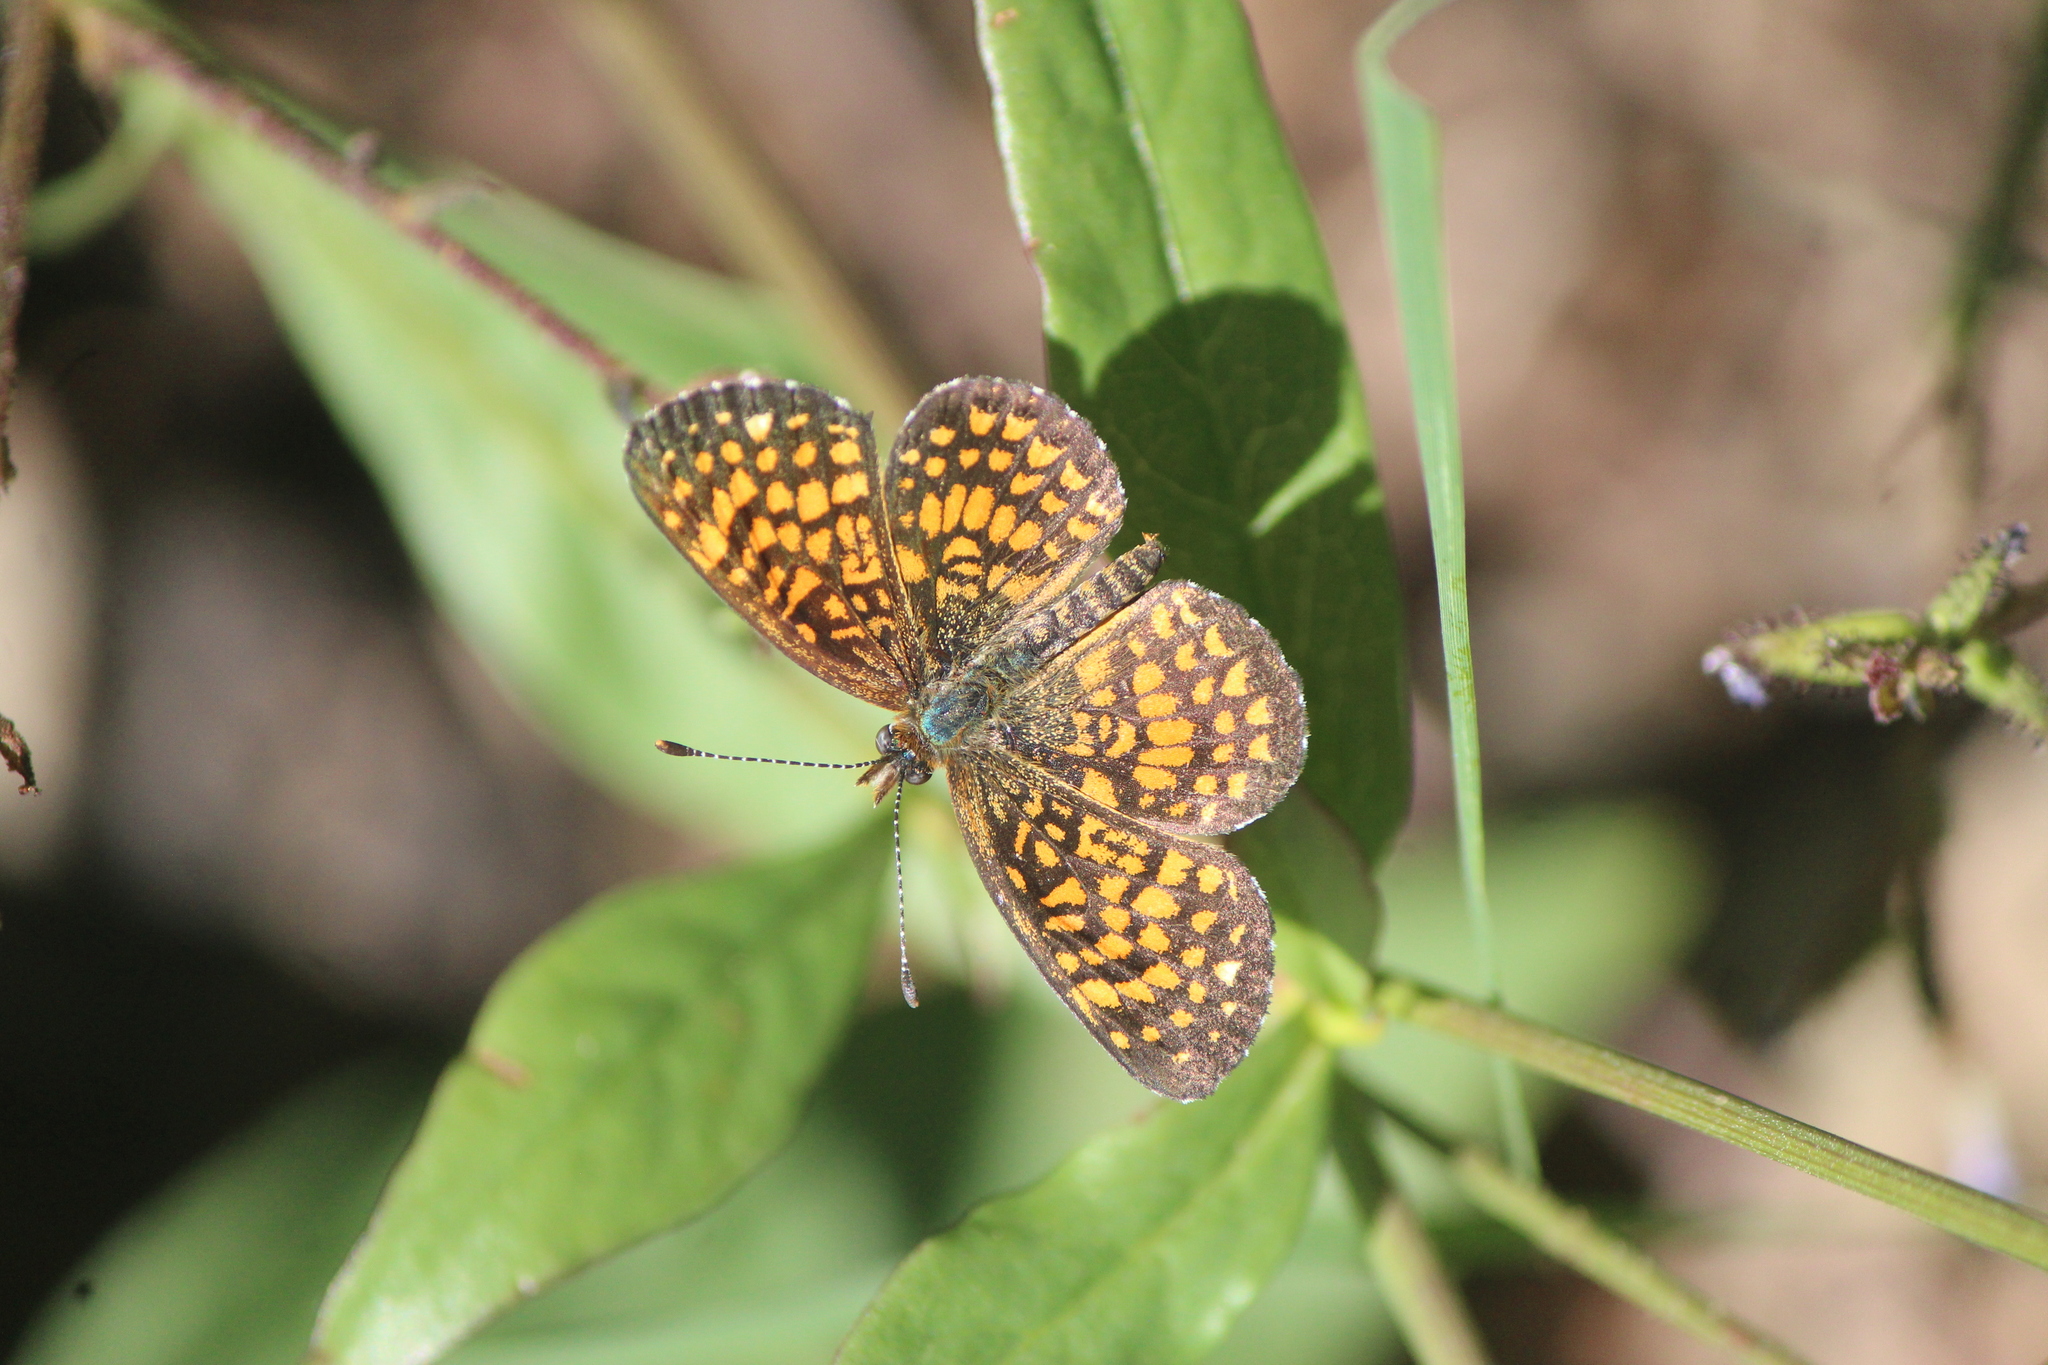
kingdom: Animalia
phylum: Arthropoda
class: Insecta
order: Lepidoptera
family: Nymphalidae
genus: Texola
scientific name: Texola elada
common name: Elada checkerspot
